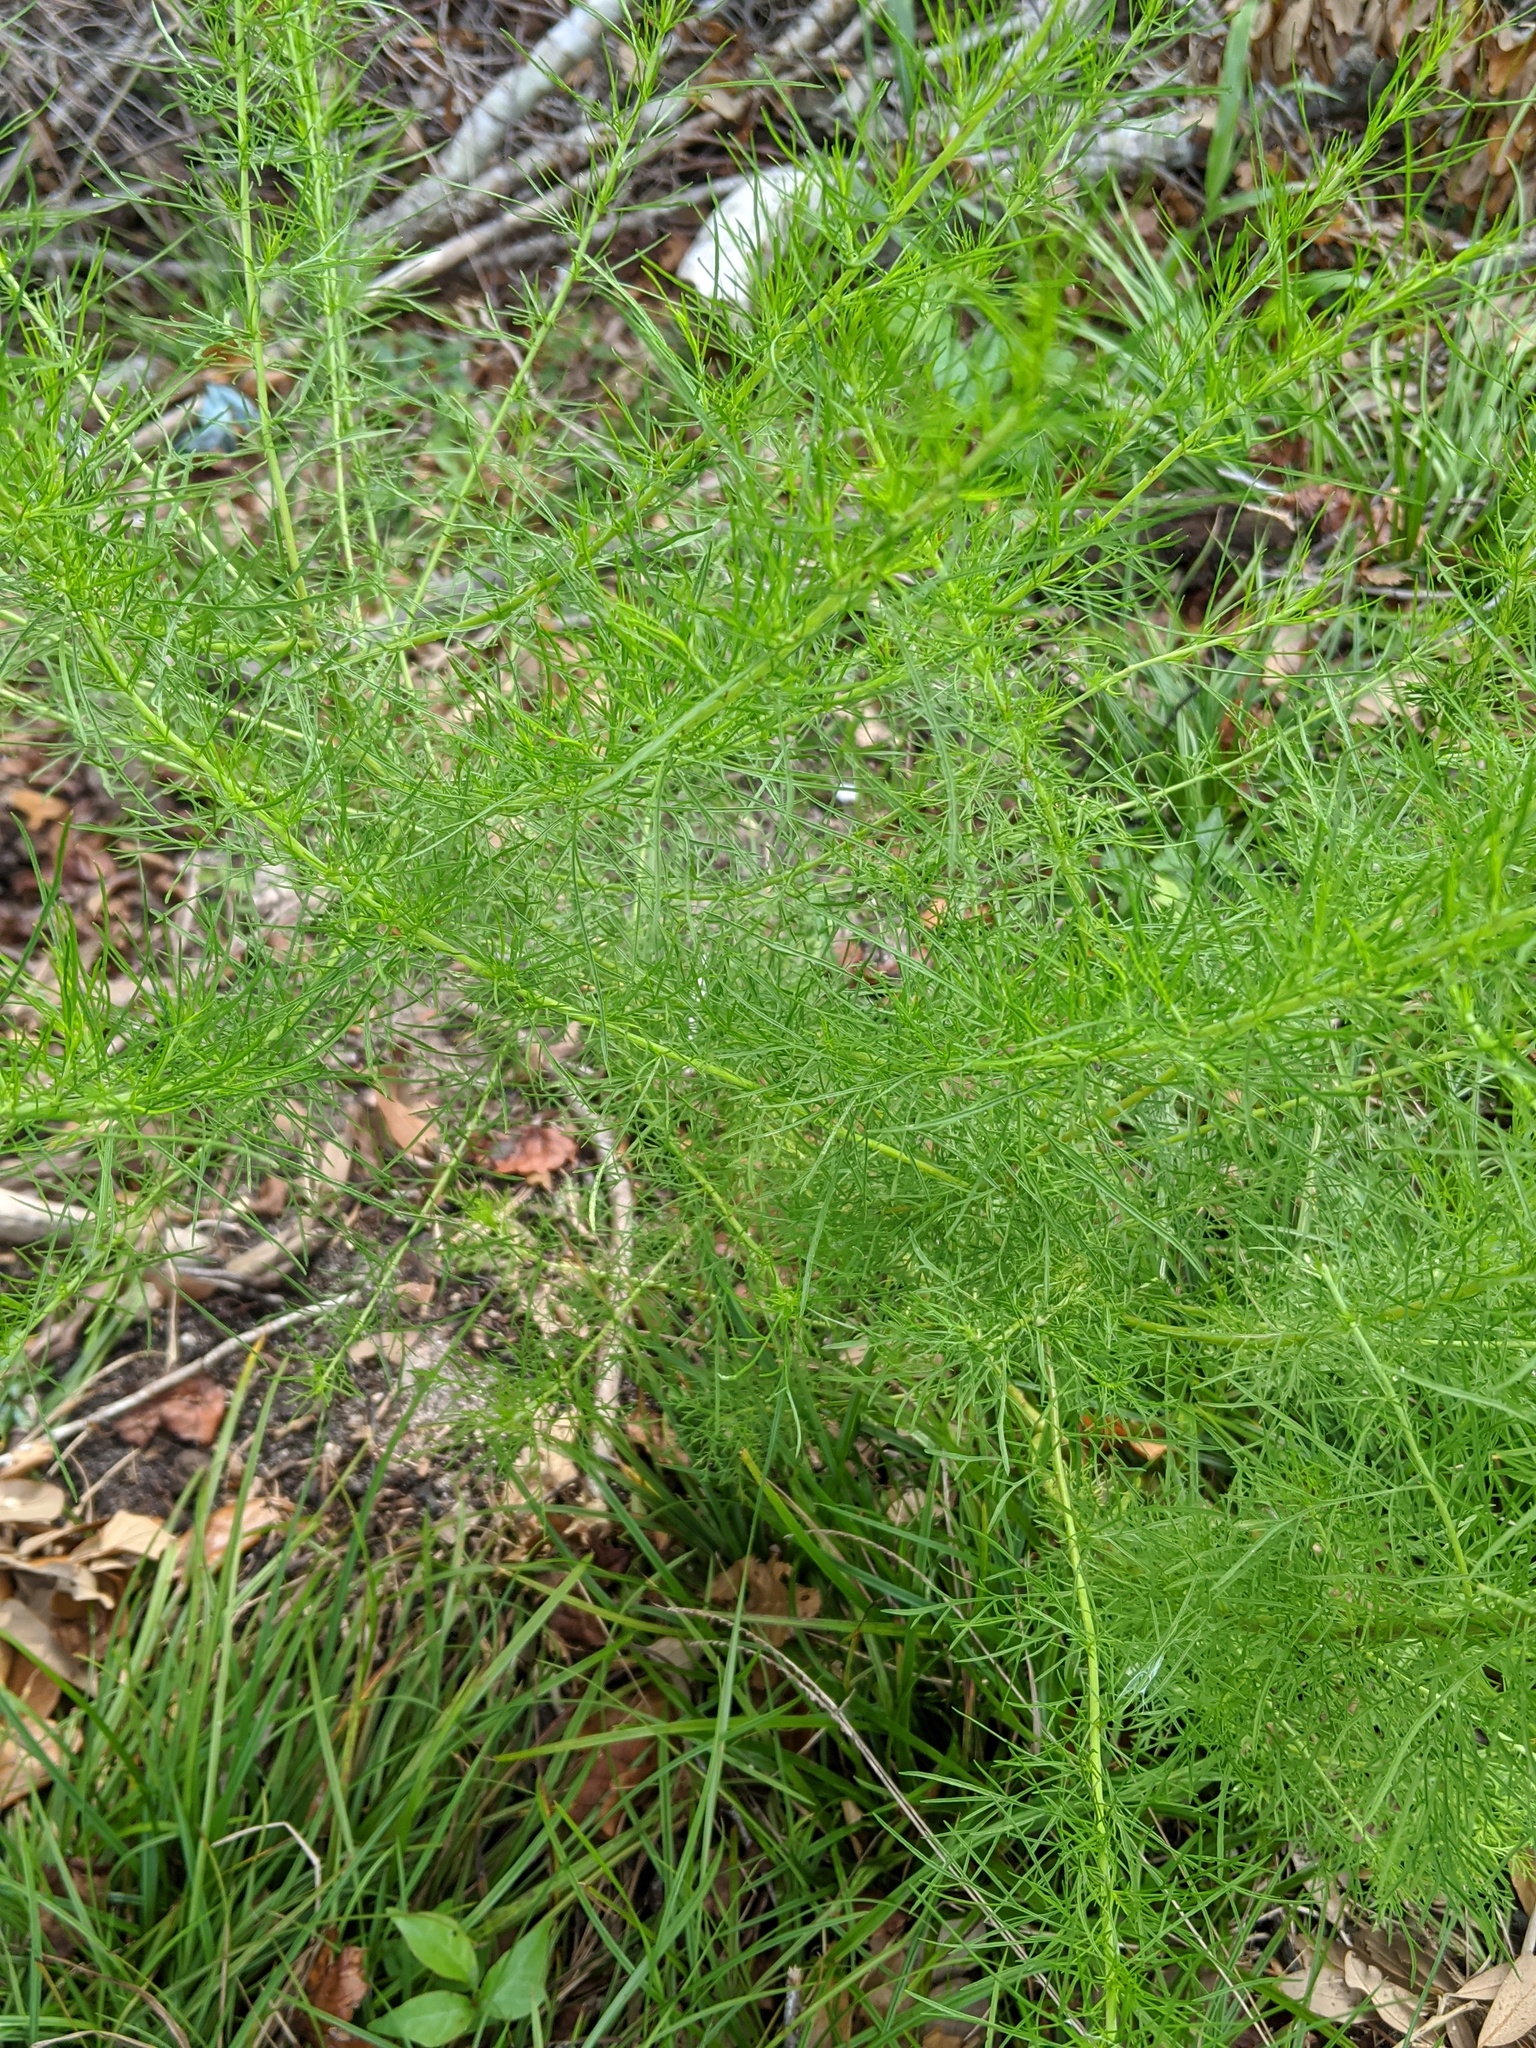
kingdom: Plantae
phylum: Tracheophyta
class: Magnoliopsida
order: Asterales
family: Asteraceae
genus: Eupatorium
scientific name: Eupatorium capillifolium
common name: Dog-fennel
